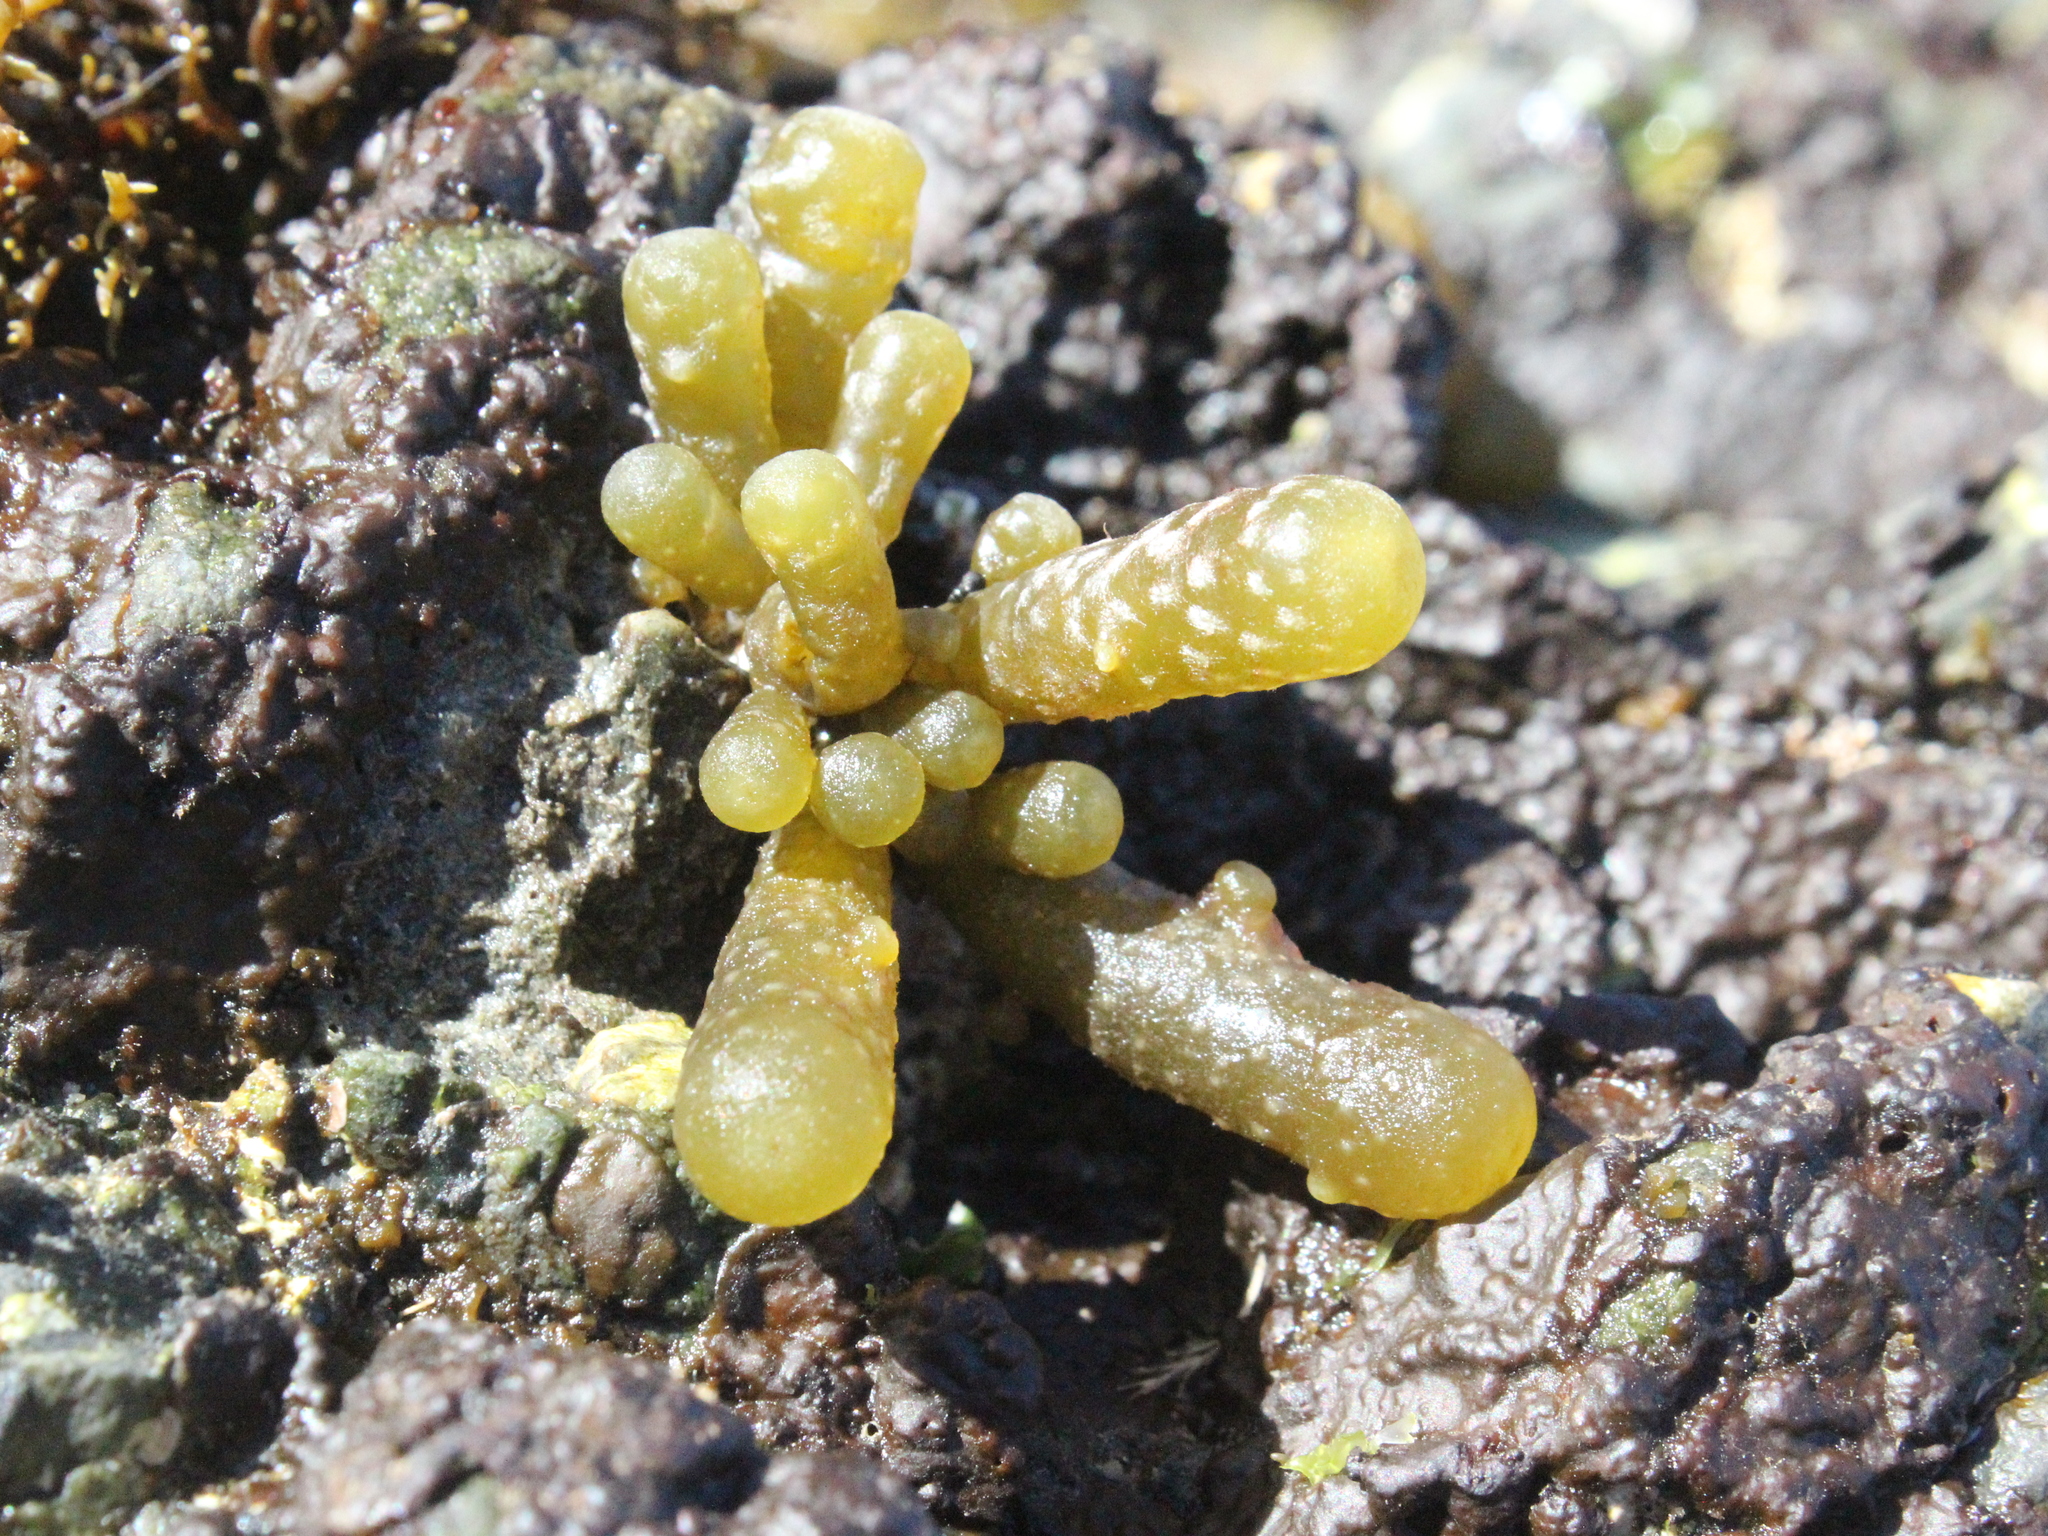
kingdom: Chromista
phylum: Ochrophyta
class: Phaeophyceae
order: Scytothamnales
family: Splachnidiaceae
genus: Splachnidium
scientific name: Splachnidium rugosum
